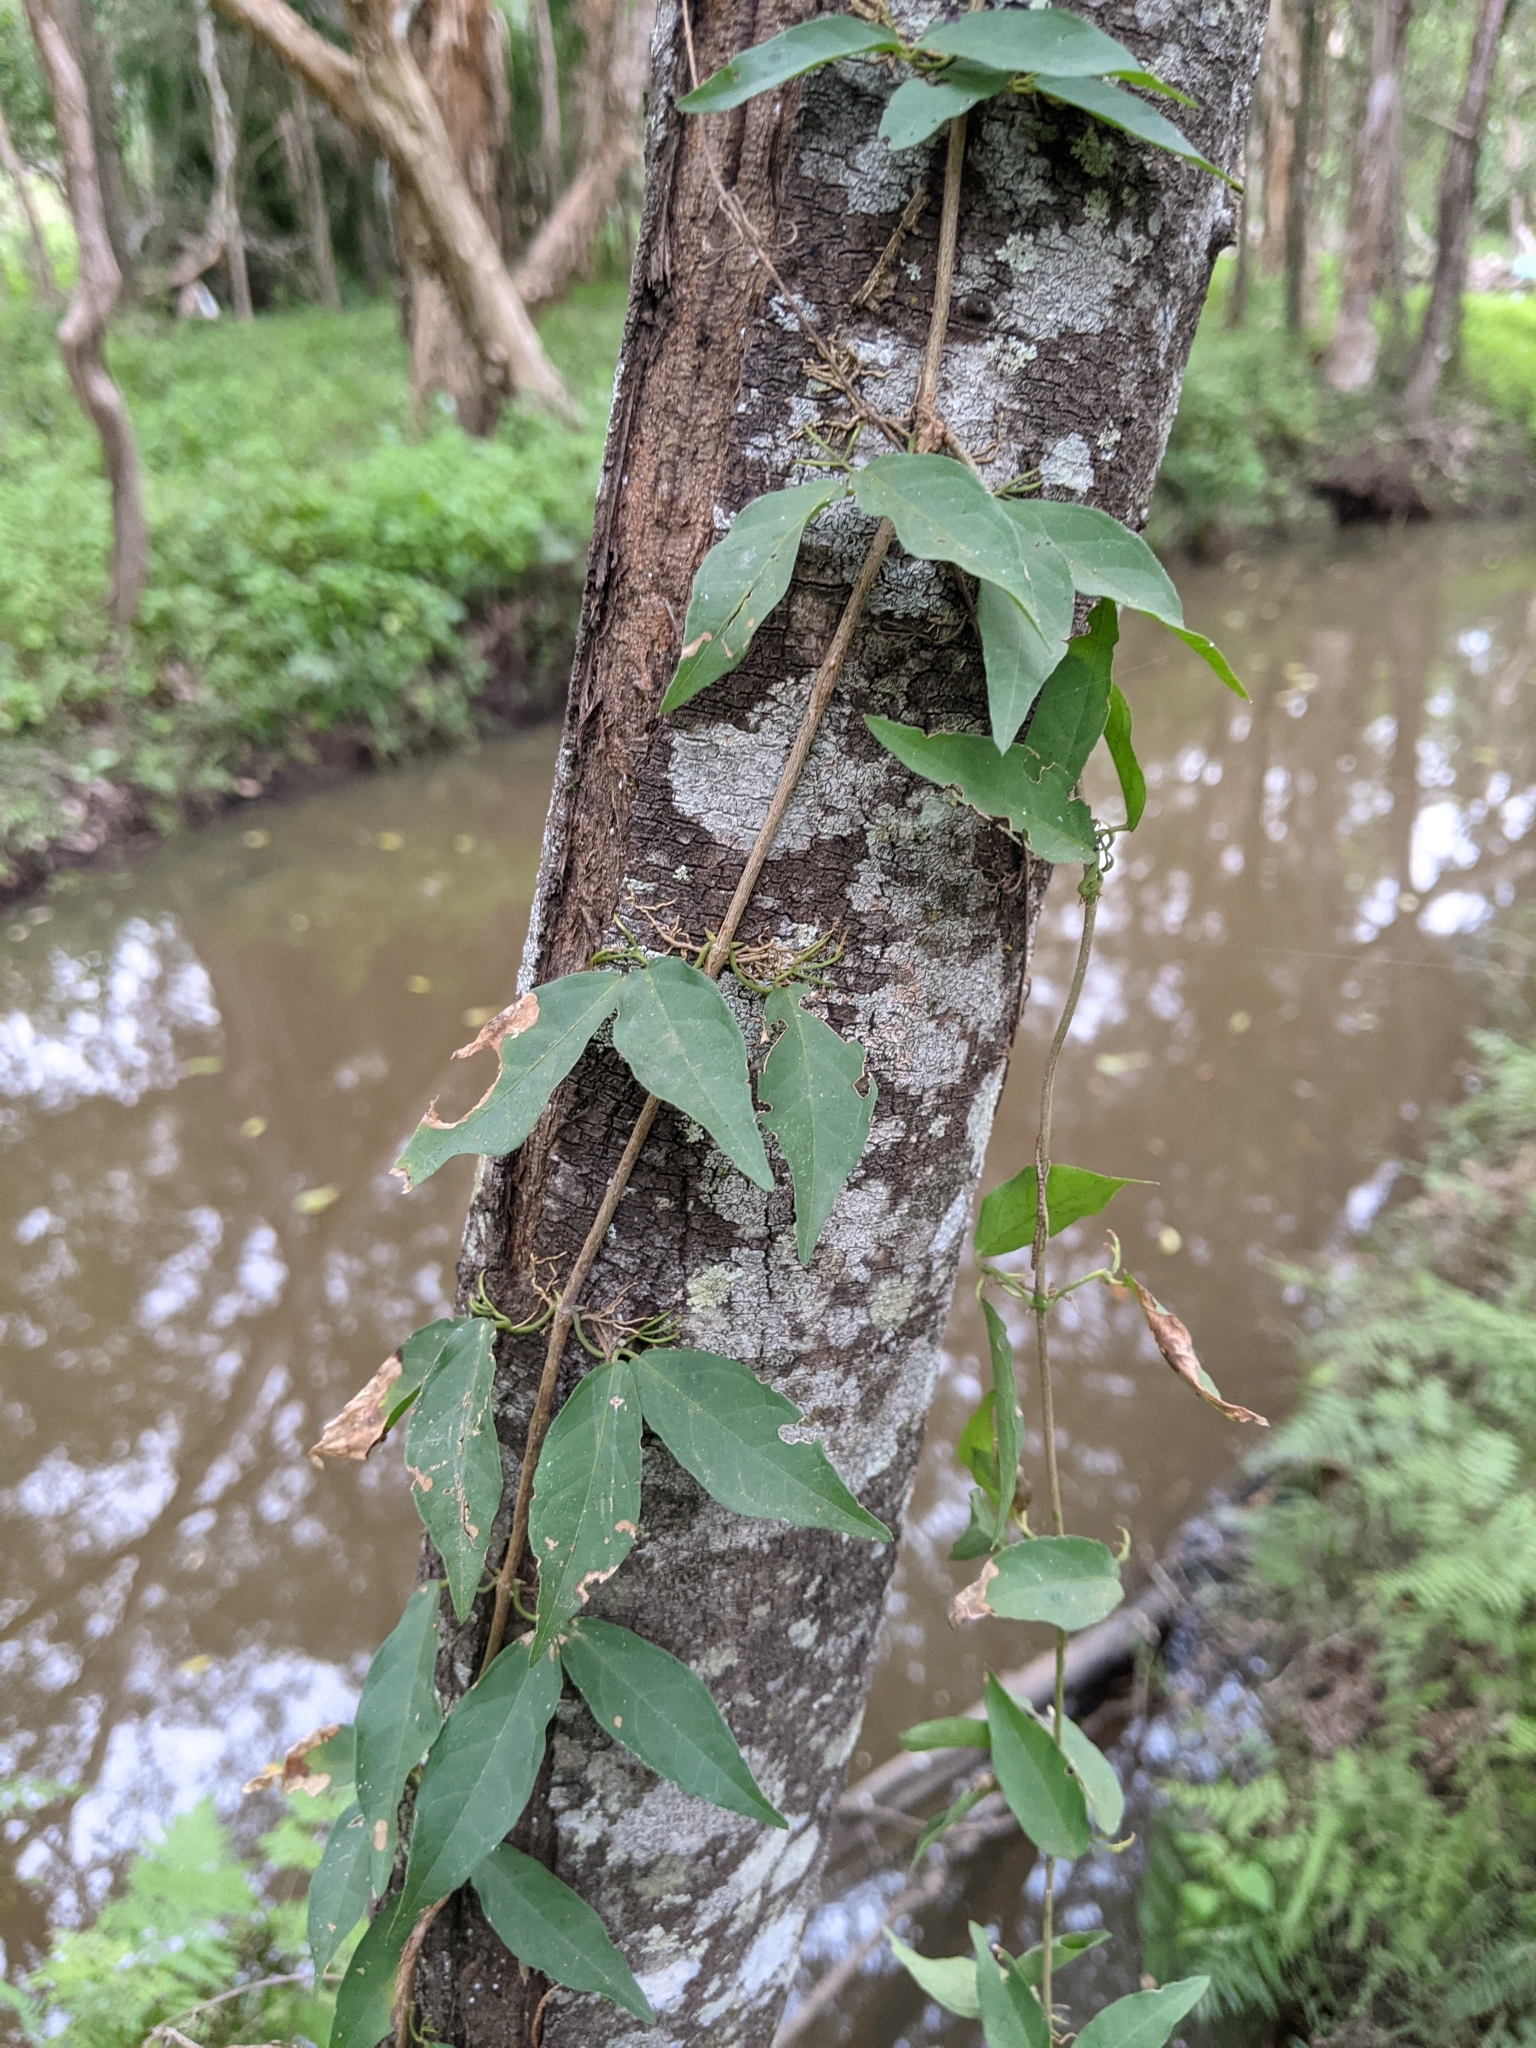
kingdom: Plantae
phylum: Tracheophyta
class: Magnoliopsida
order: Lamiales
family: Bignoniaceae
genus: Dolichandra
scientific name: Dolichandra unguis-cati
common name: Catclaw vine
